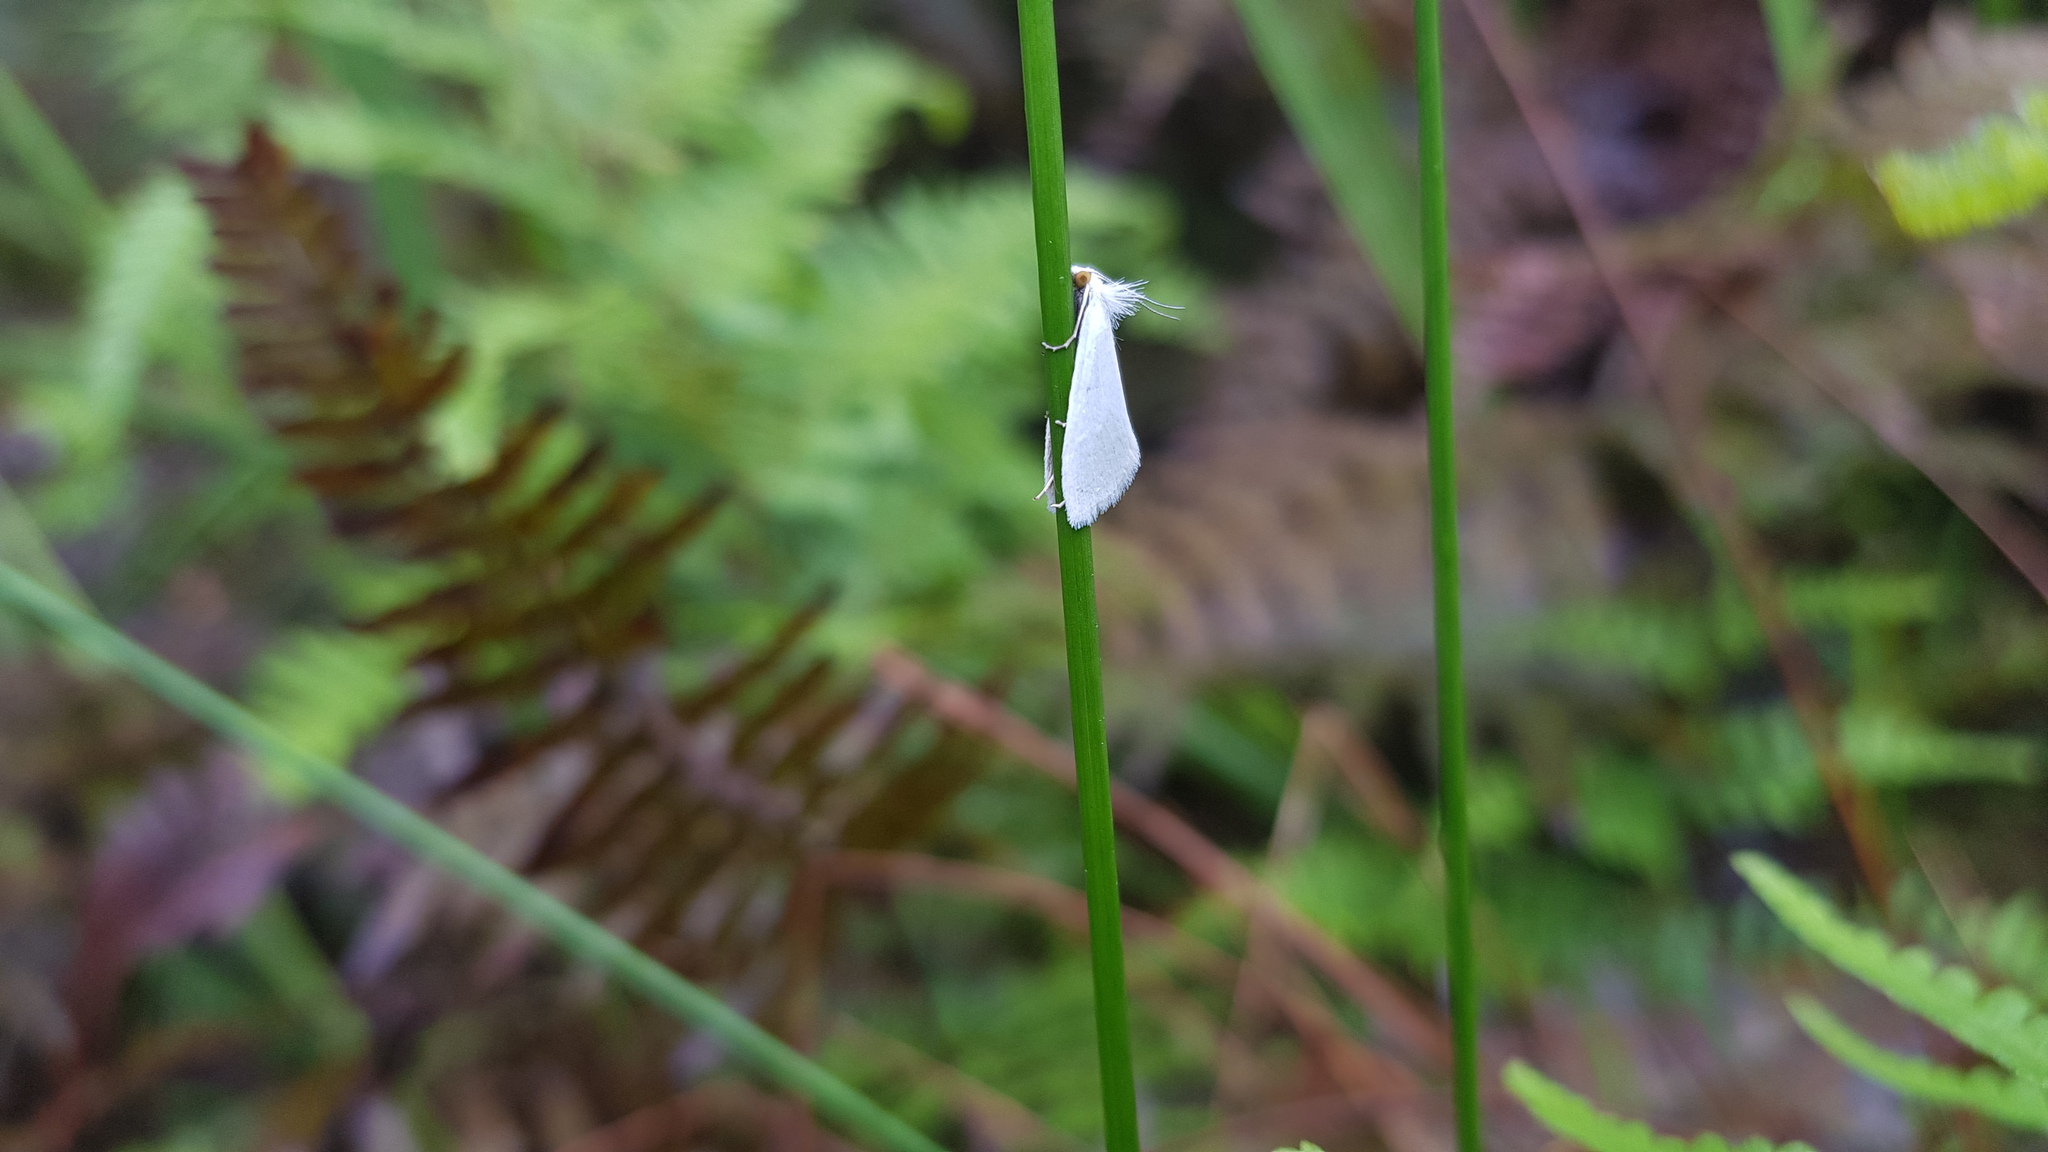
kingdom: Animalia
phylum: Arthropoda
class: Insecta
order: Lepidoptera
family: Crambidae
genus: Tipanaea
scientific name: Tipanaea patulella
